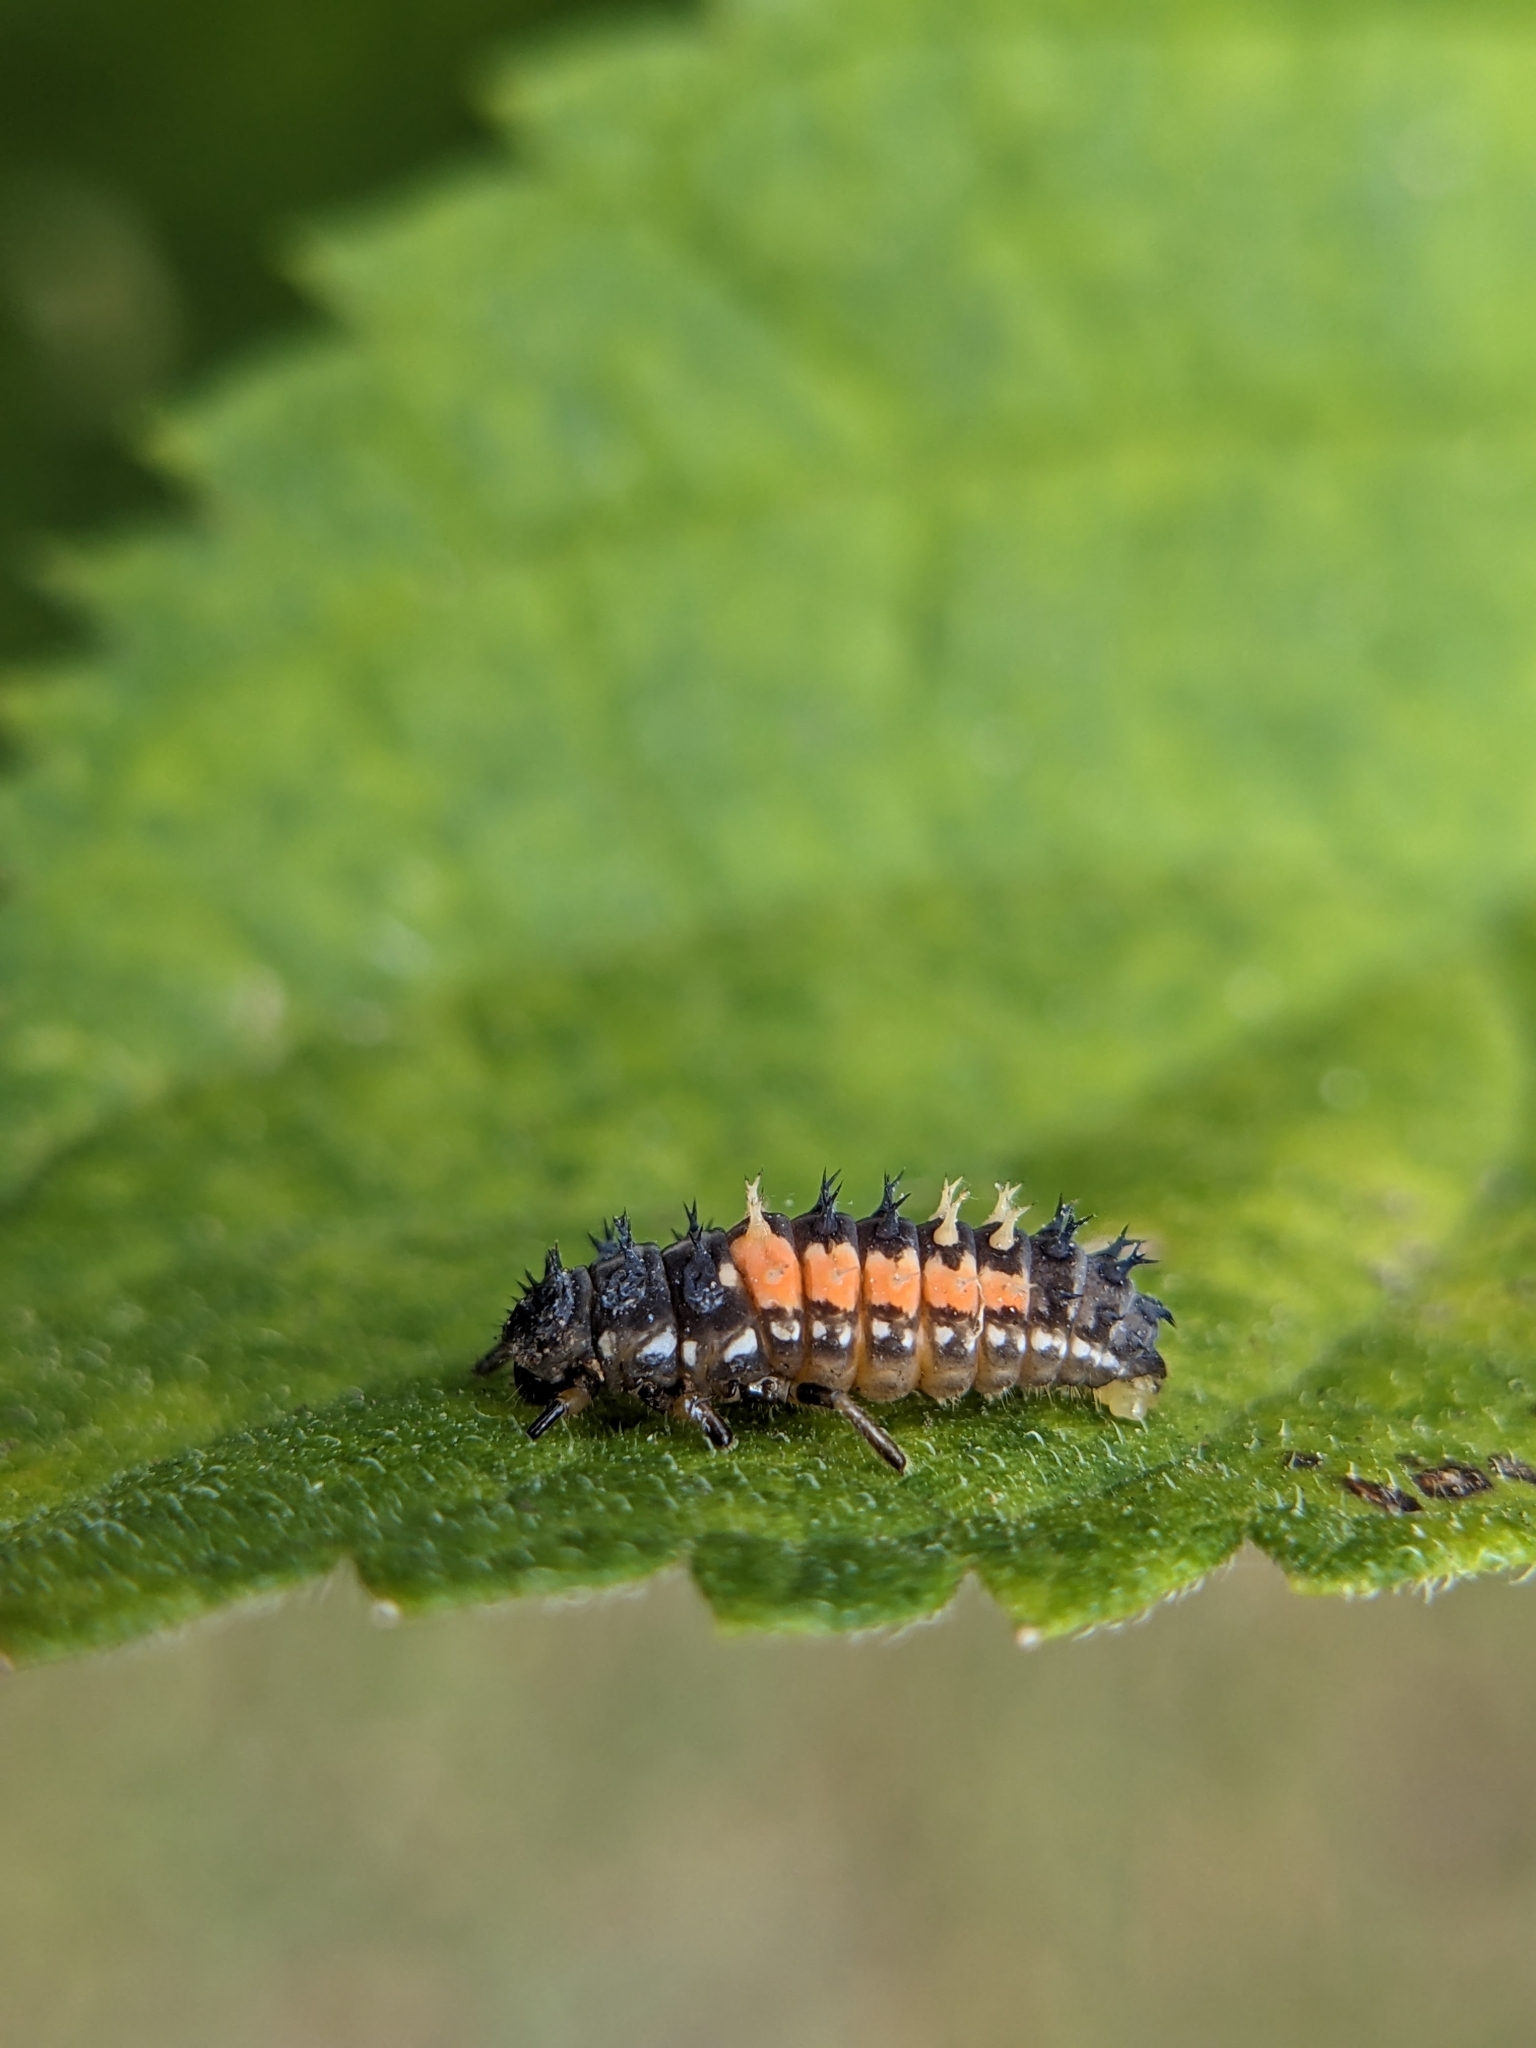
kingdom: Animalia
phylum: Arthropoda
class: Insecta
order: Coleoptera
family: Coccinellidae
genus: Harmonia
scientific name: Harmonia axyridis
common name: Harlequin ladybird
